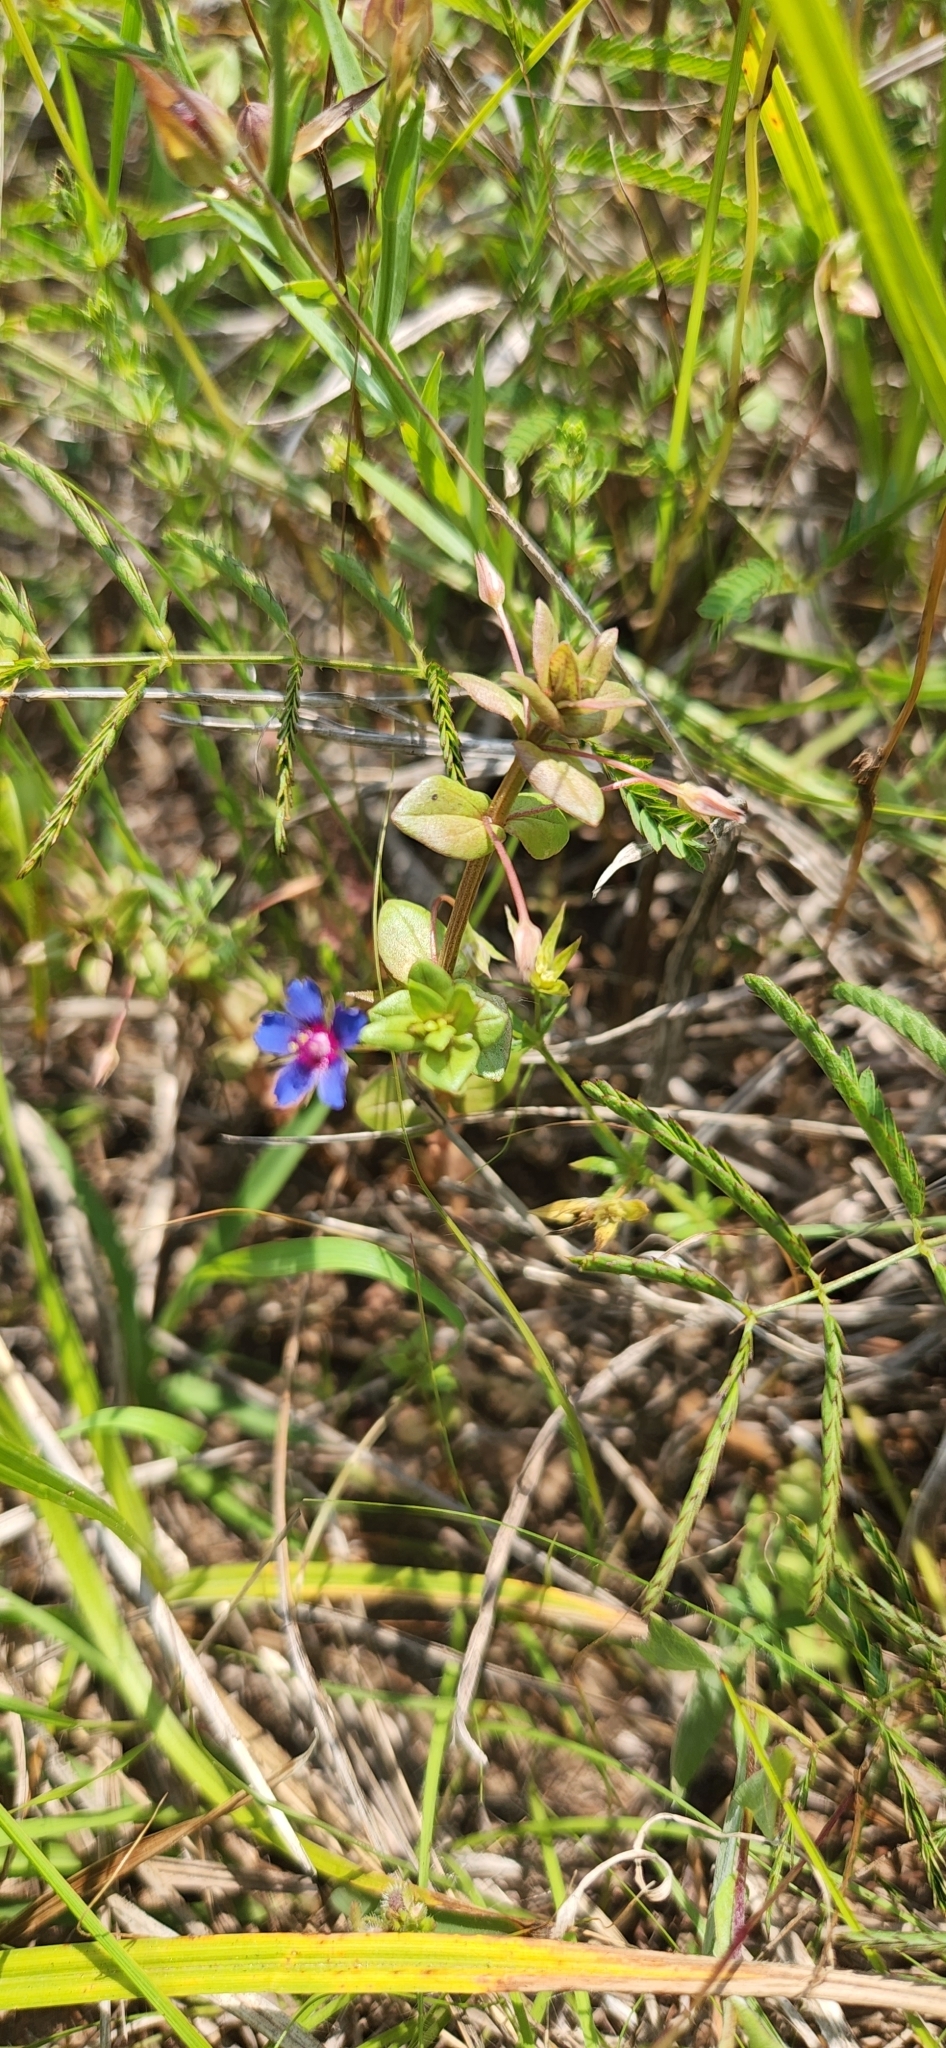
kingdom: Plantae
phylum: Tracheophyta
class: Magnoliopsida
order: Ericales
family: Primulaceae
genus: Lysimachia
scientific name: Lysimachia loeflingii
